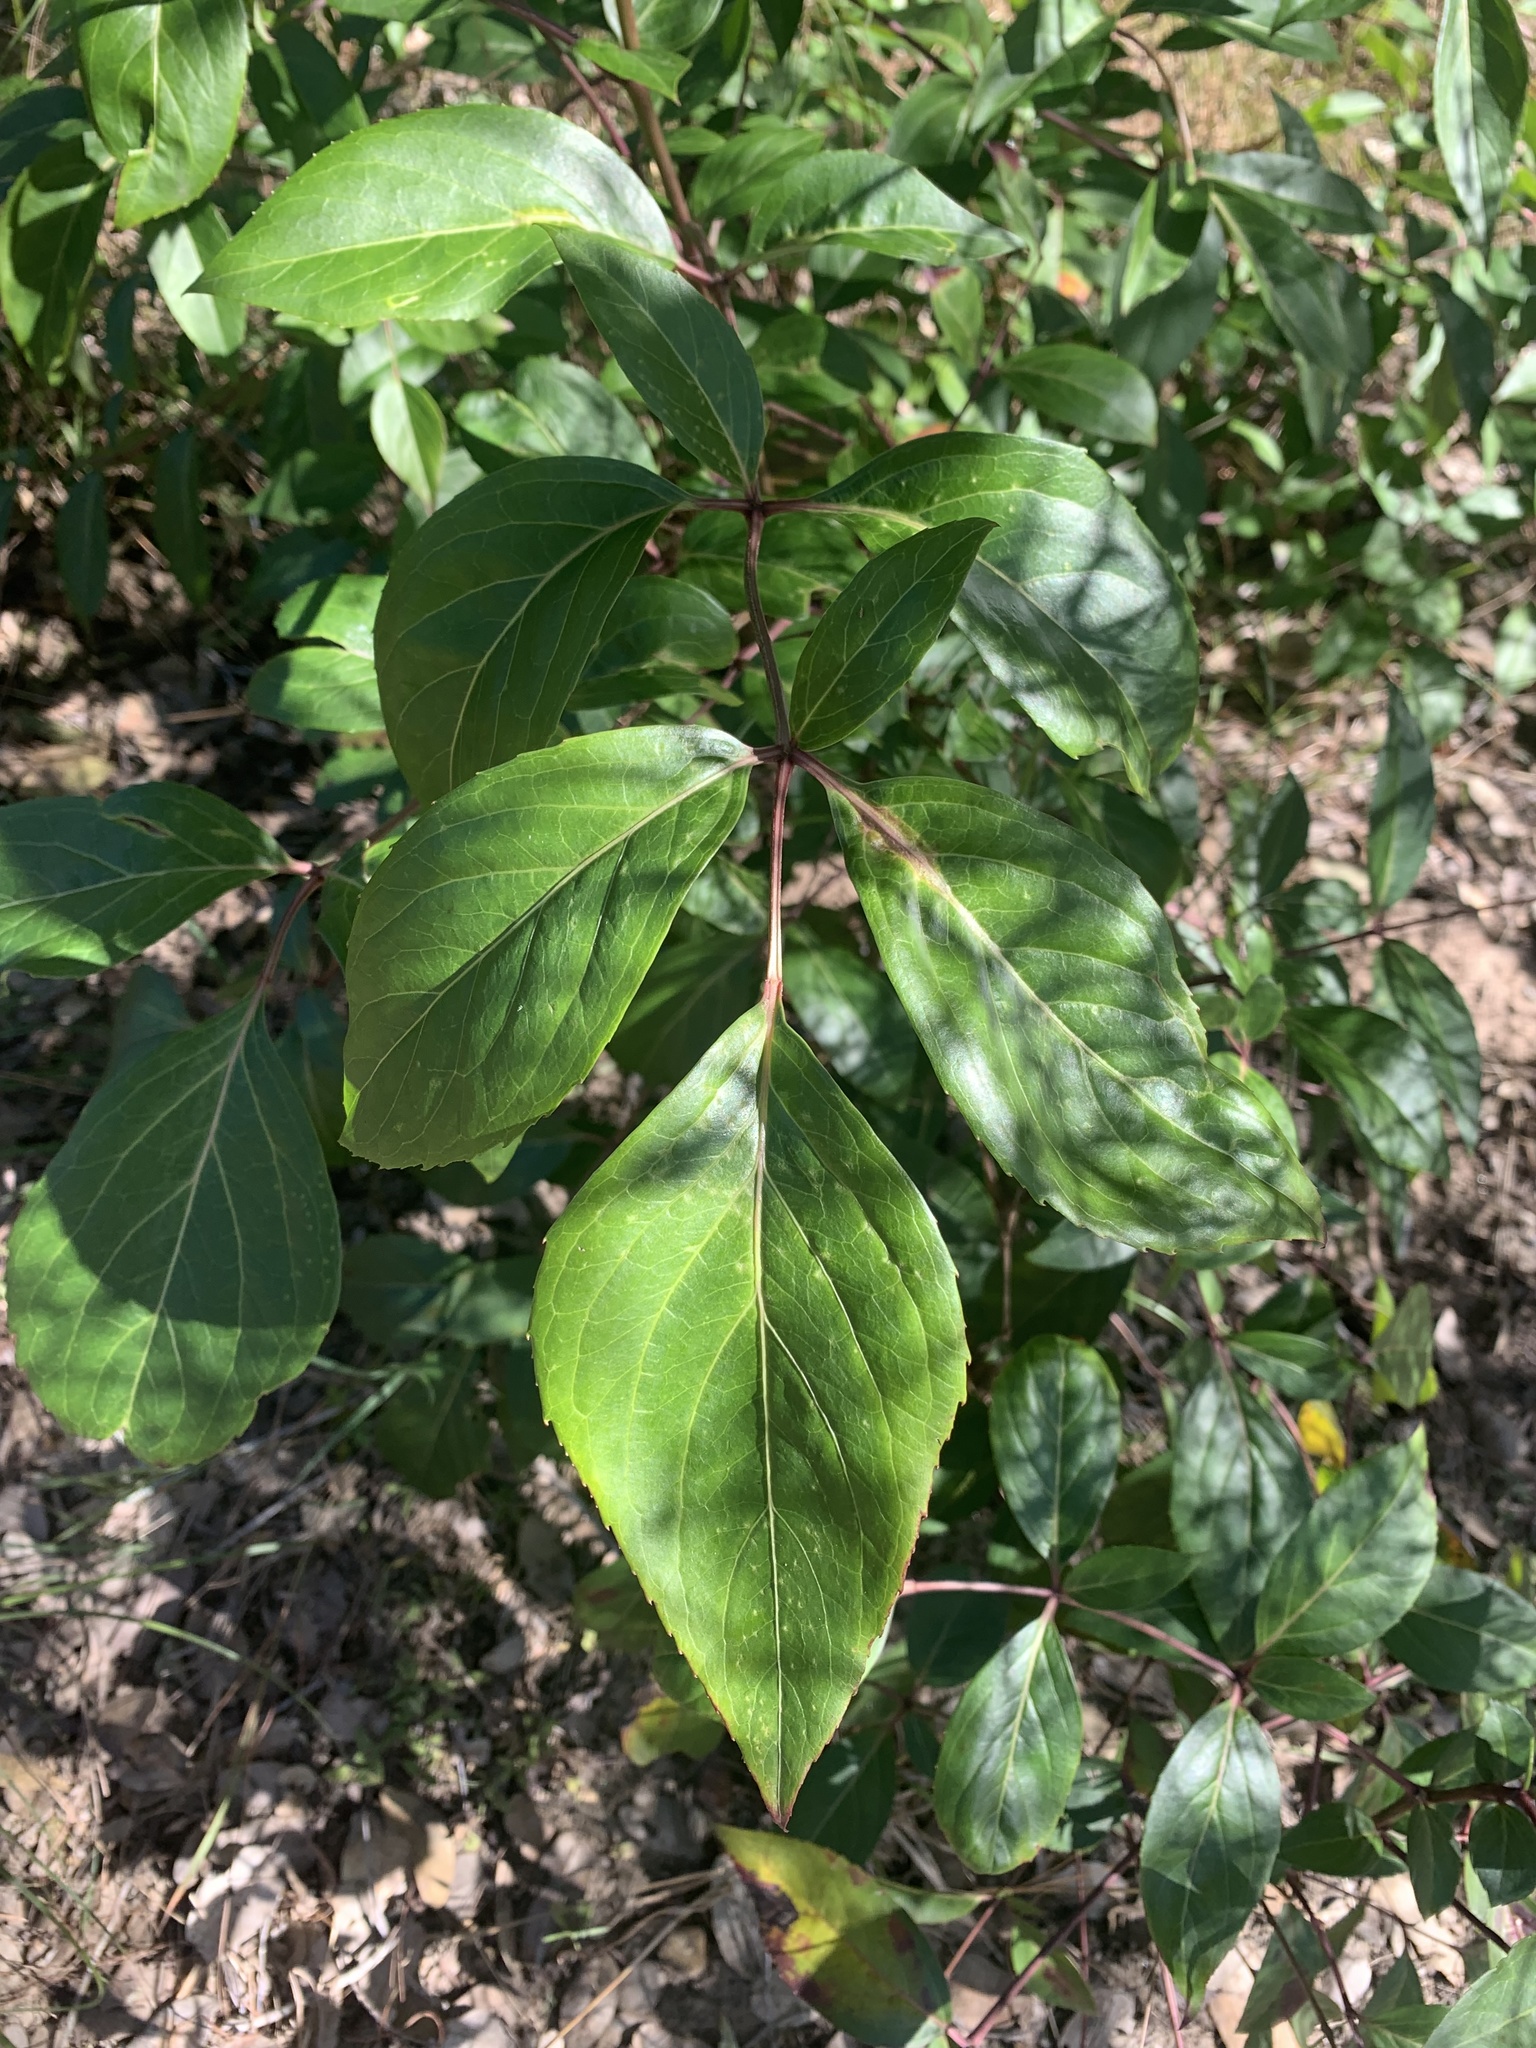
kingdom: Plantae
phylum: Tracheophyta
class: Magnoliopsida
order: Apiales
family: Araliaceae
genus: Polyscias
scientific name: Polyscias sambucifolia
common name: Elderberry-ash
